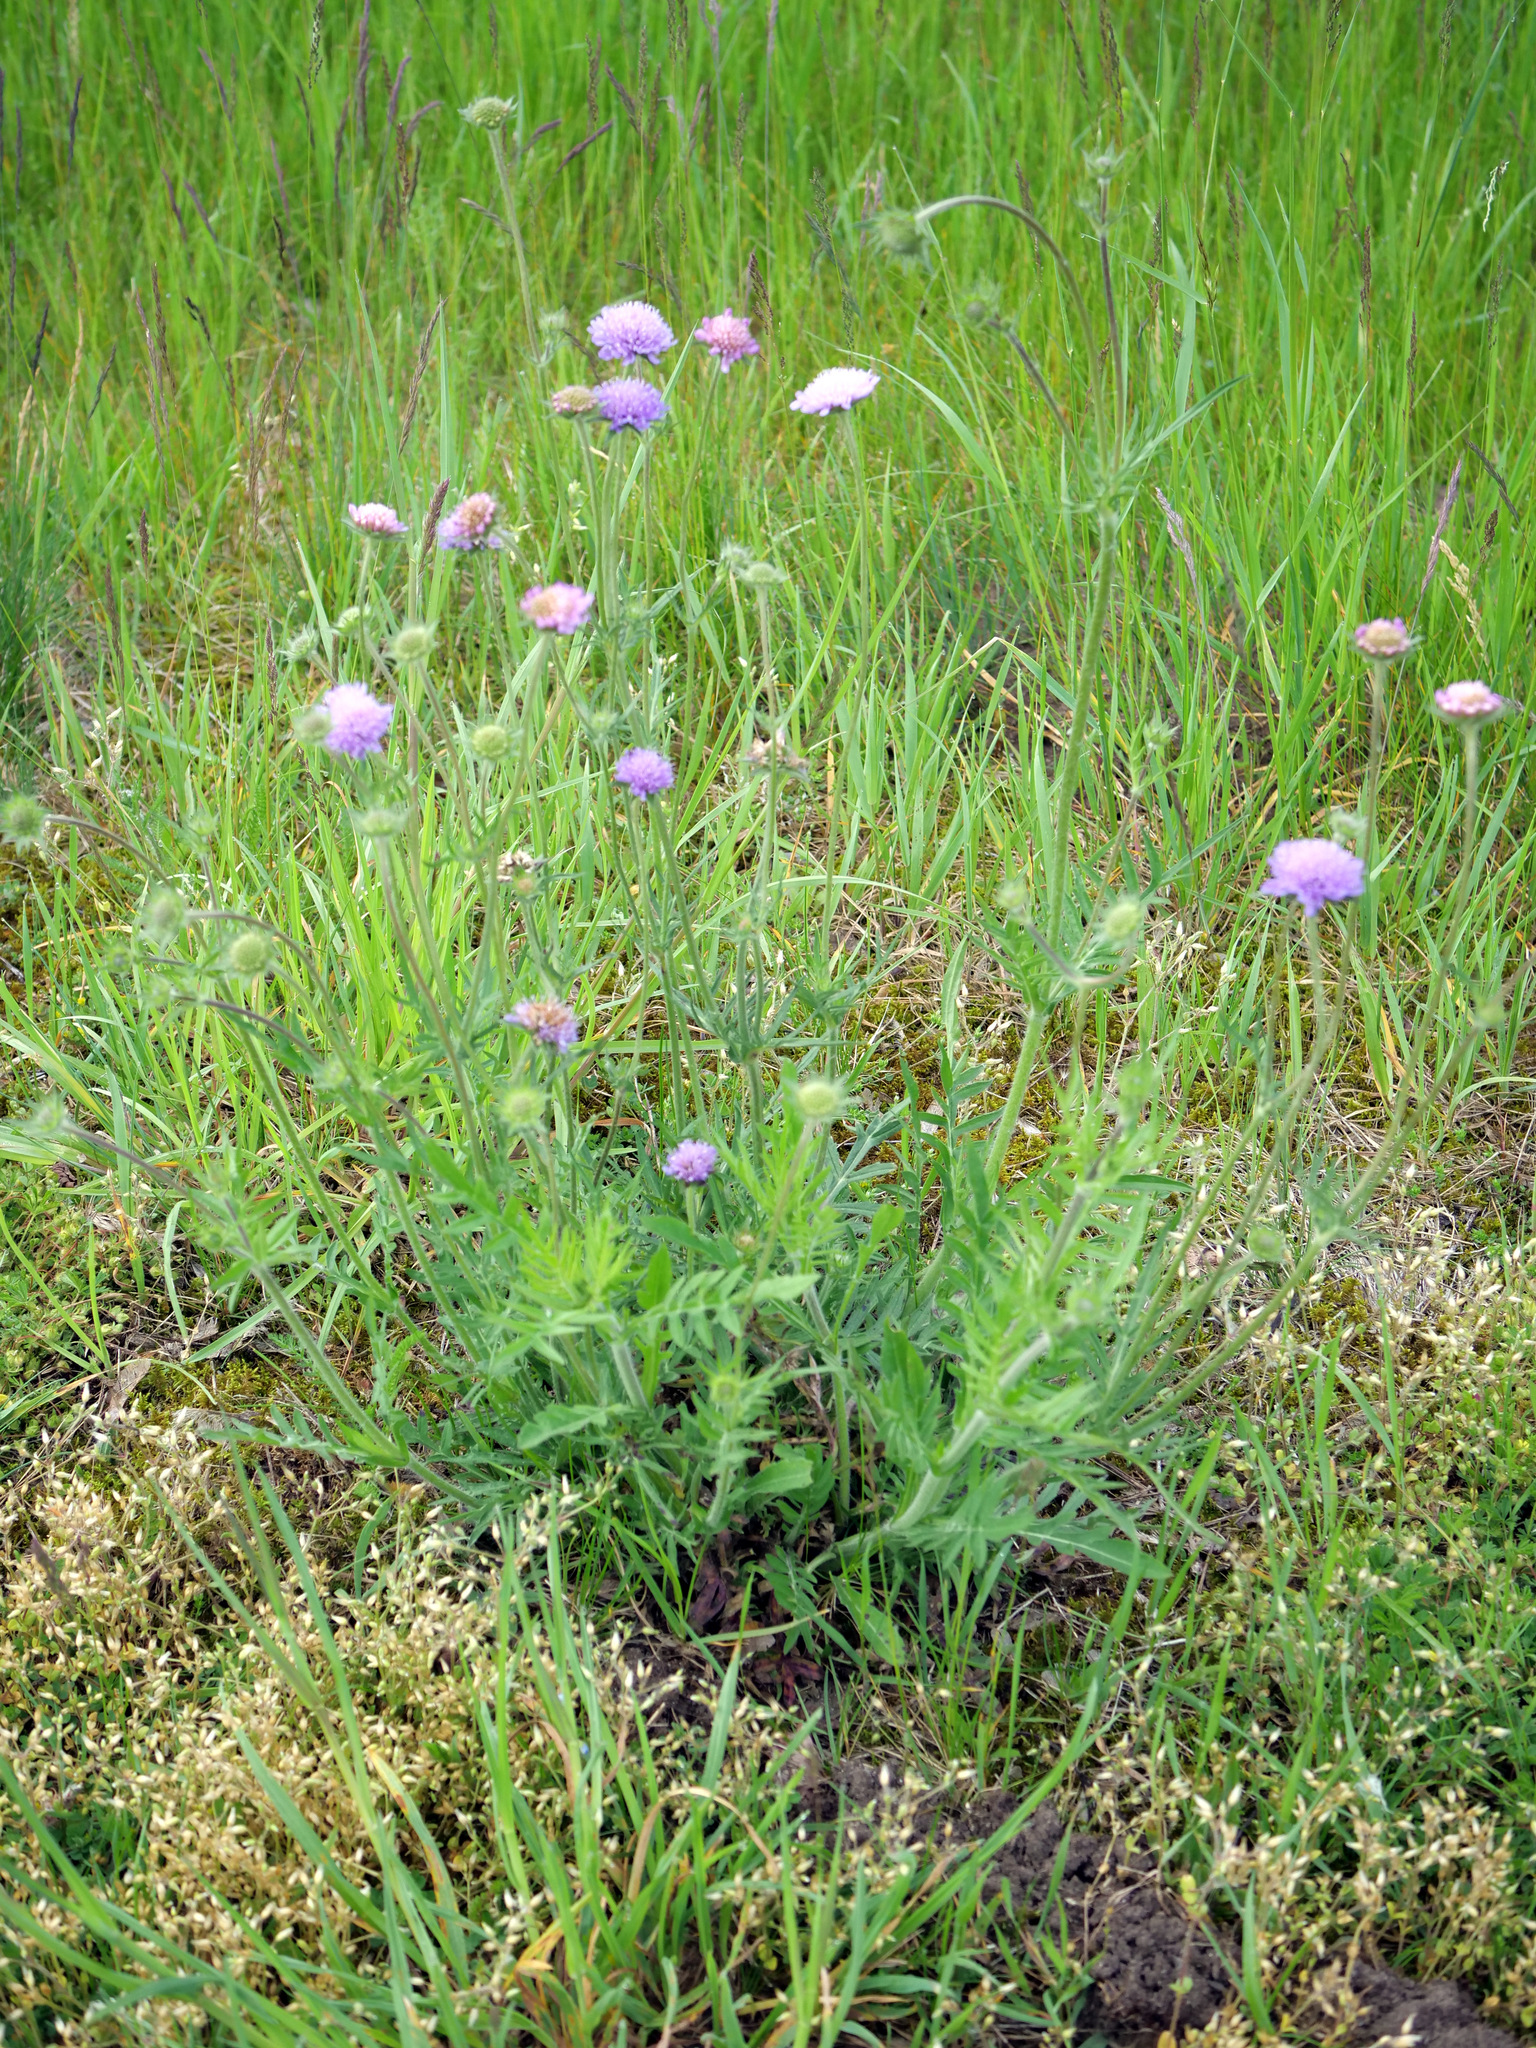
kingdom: Plantae
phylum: Tracheophyta
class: Magnoliopsida
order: Dipsacales
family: Caprifoliaceae
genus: Knautia
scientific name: Knautia arvensis
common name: Field scabiosa
